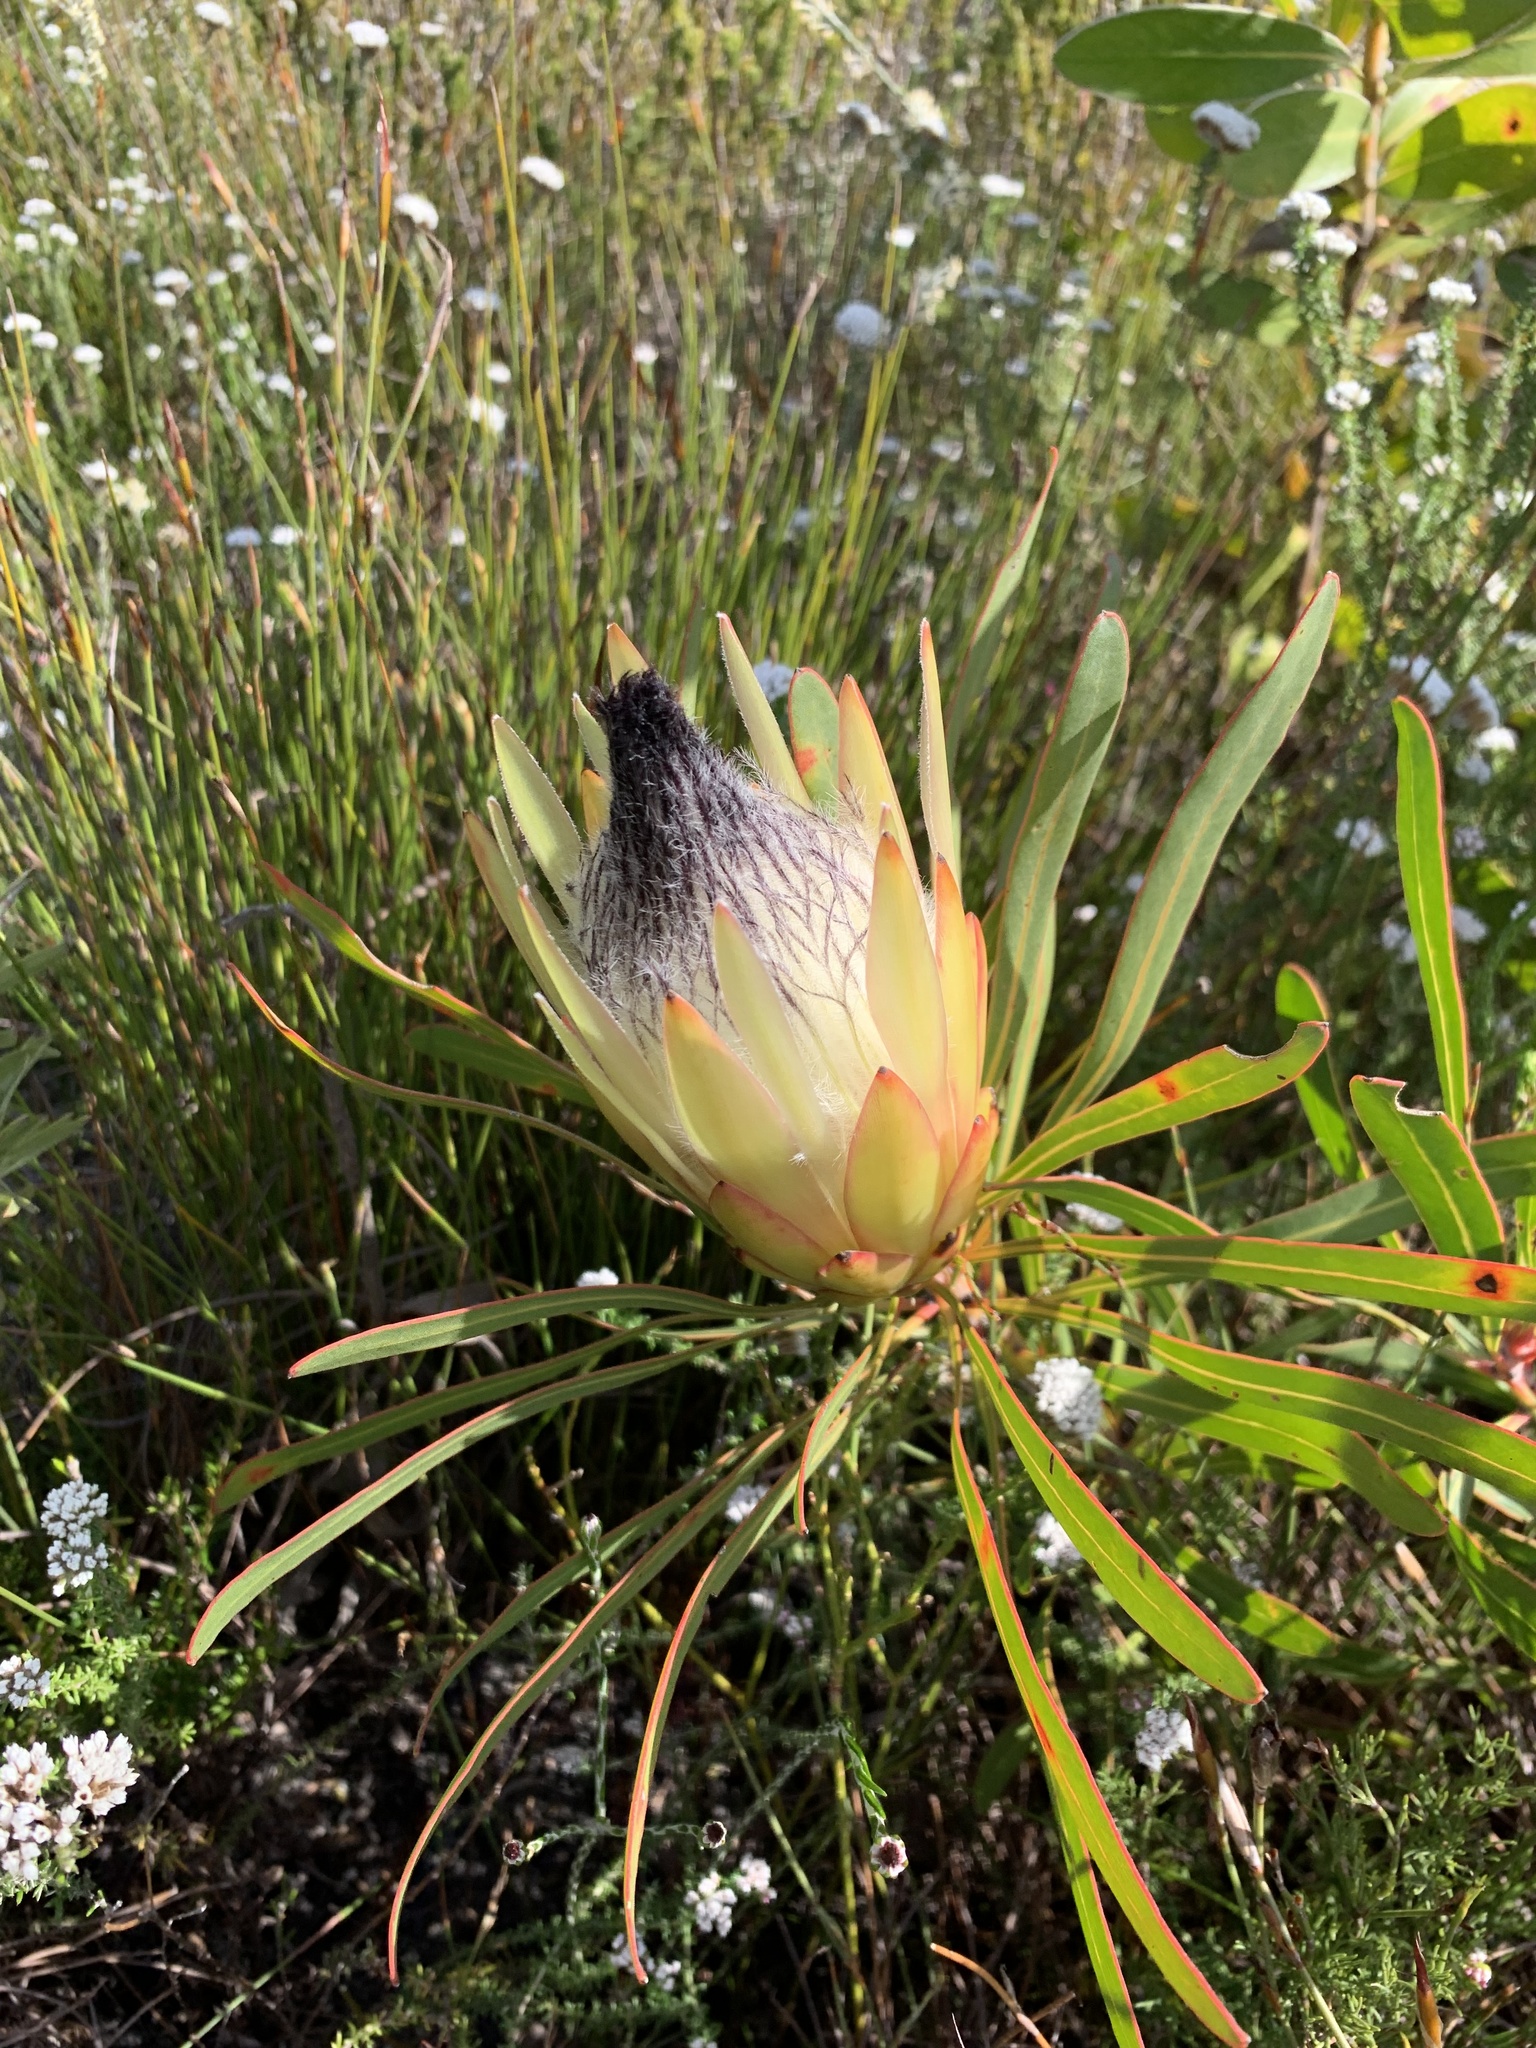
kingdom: Plantae
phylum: Tracheophyta
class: Magnoliopsida
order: Proteales
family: Proteaceae
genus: Protea
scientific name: Protea longifolia
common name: Long-leaf sugarbush
